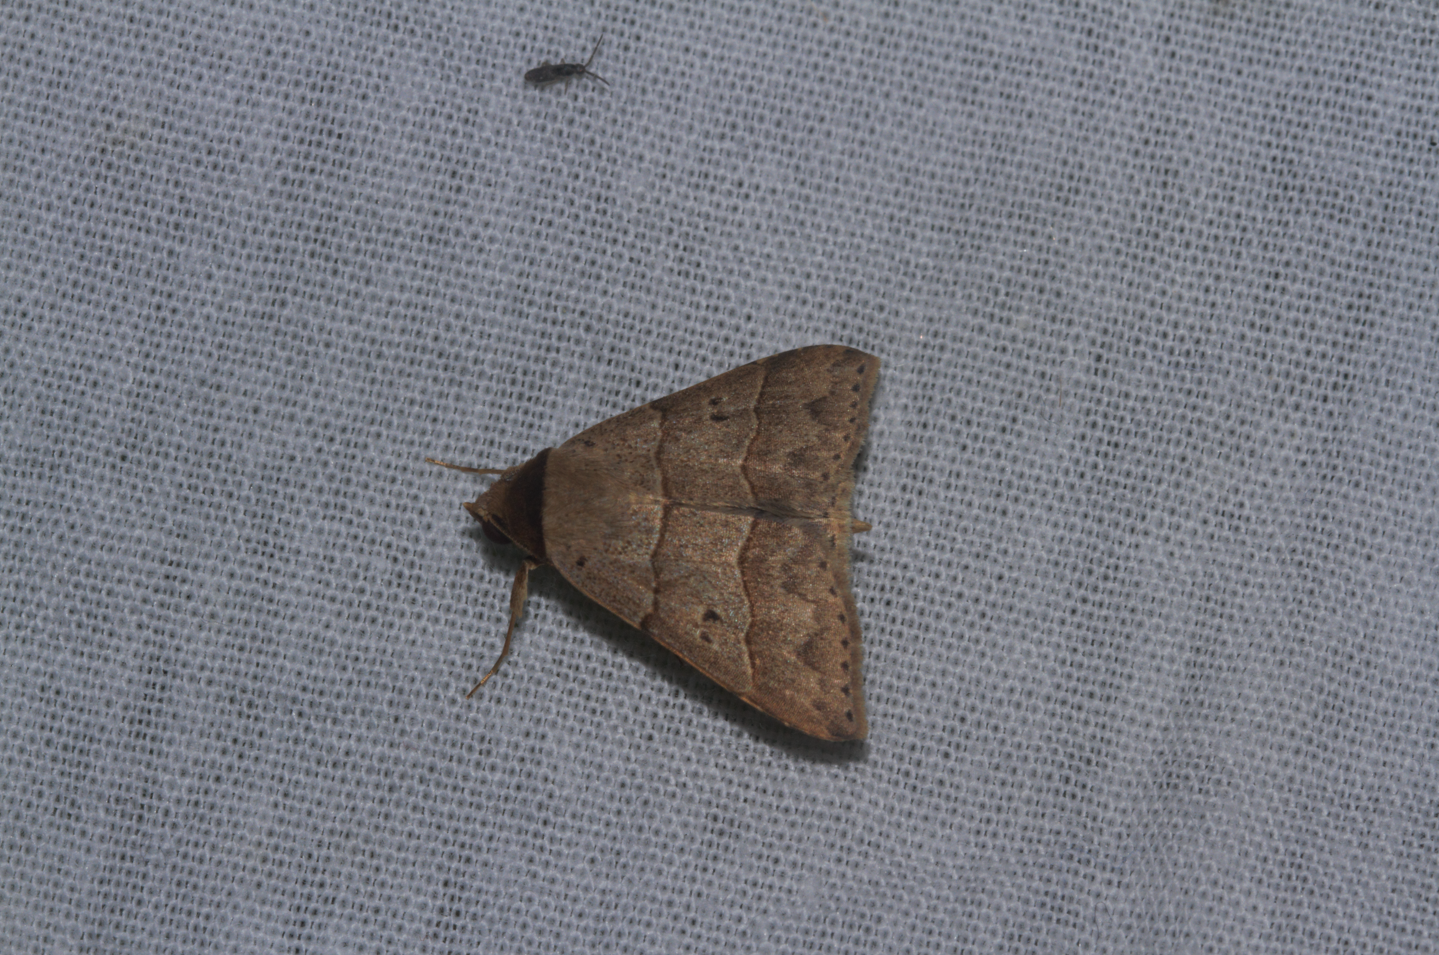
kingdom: Animalia
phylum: Arthropoda
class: Insecta
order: Lepidoptera
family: Erebidae
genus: Baniana
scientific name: Baniana ostia
